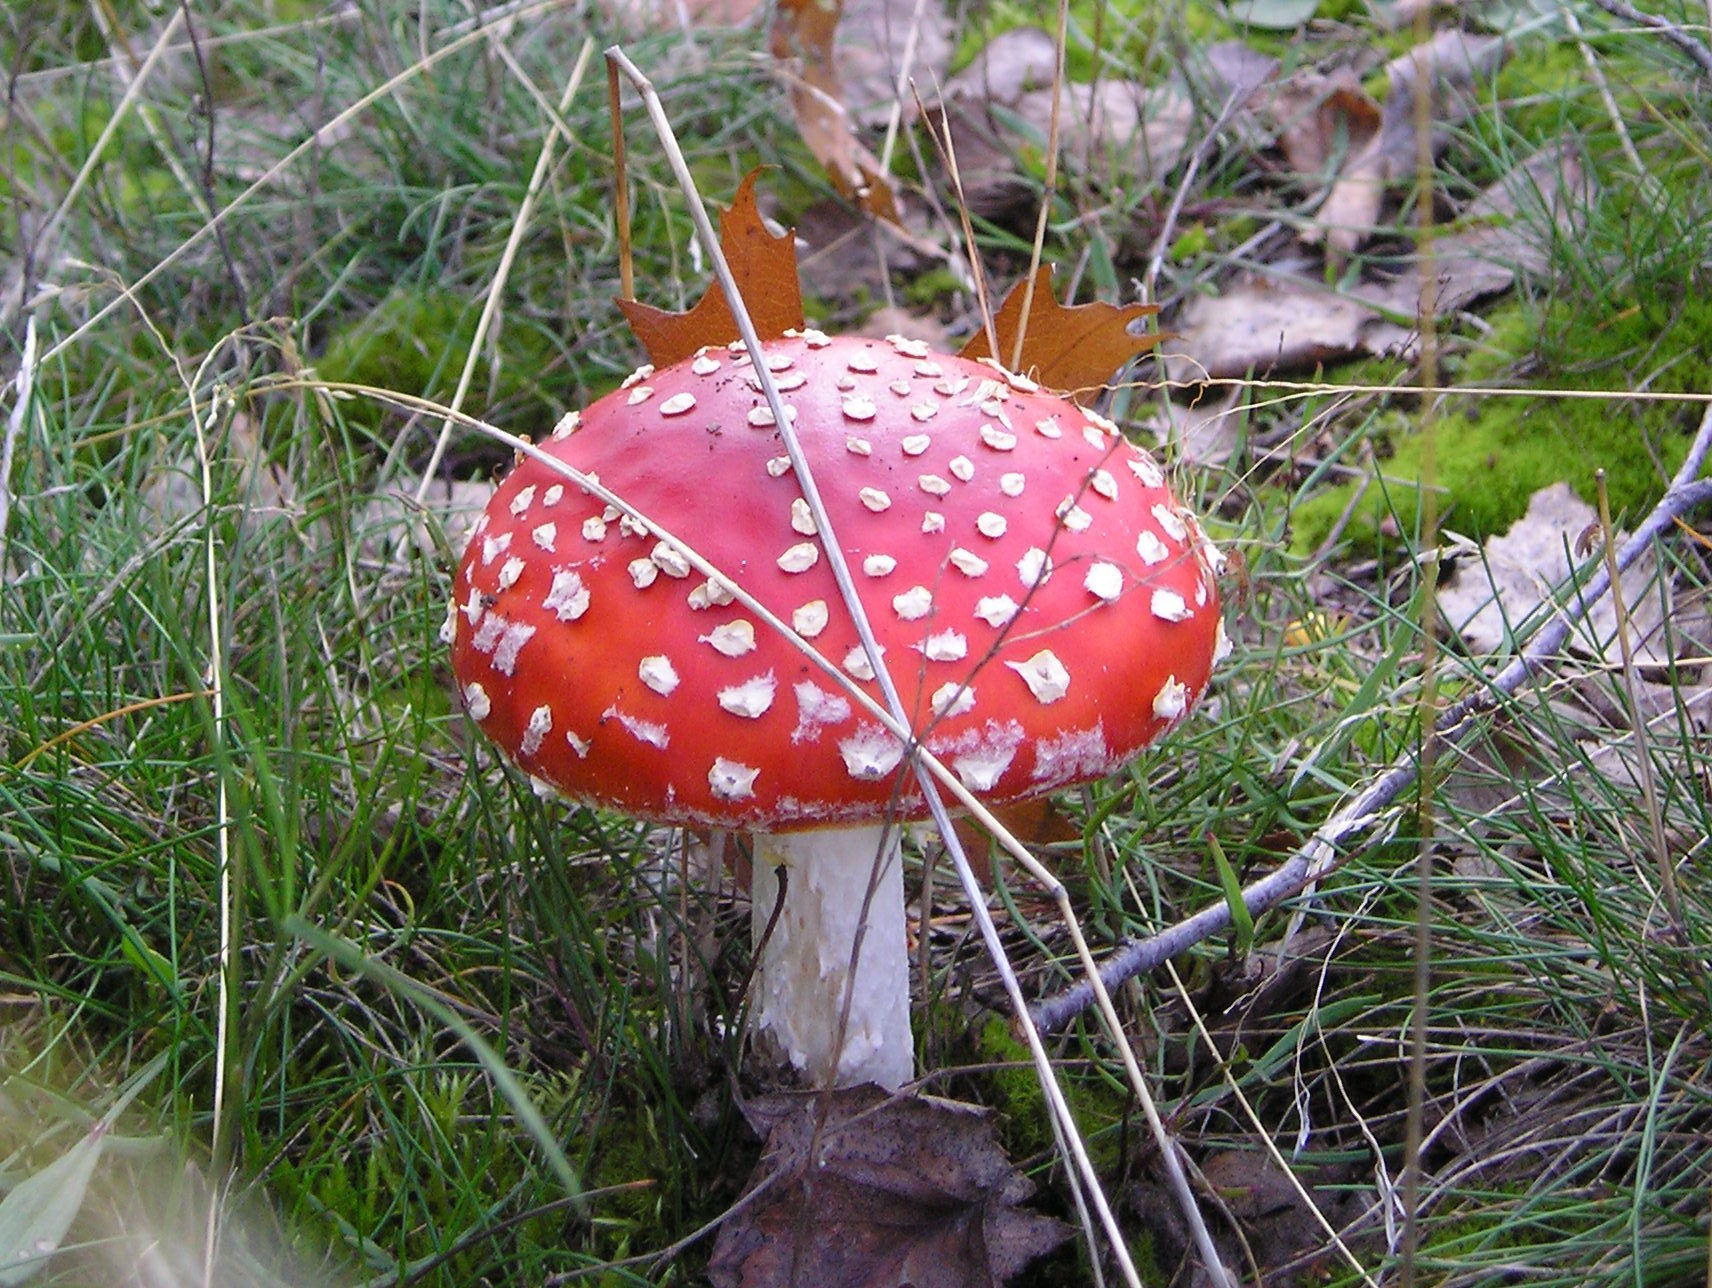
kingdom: Fungi
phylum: Basidiomycota
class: Agaricomycetes
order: Agaricales
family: Amanitaceae
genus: Amanita
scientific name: Amanita muscaria
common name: Fly agaric
